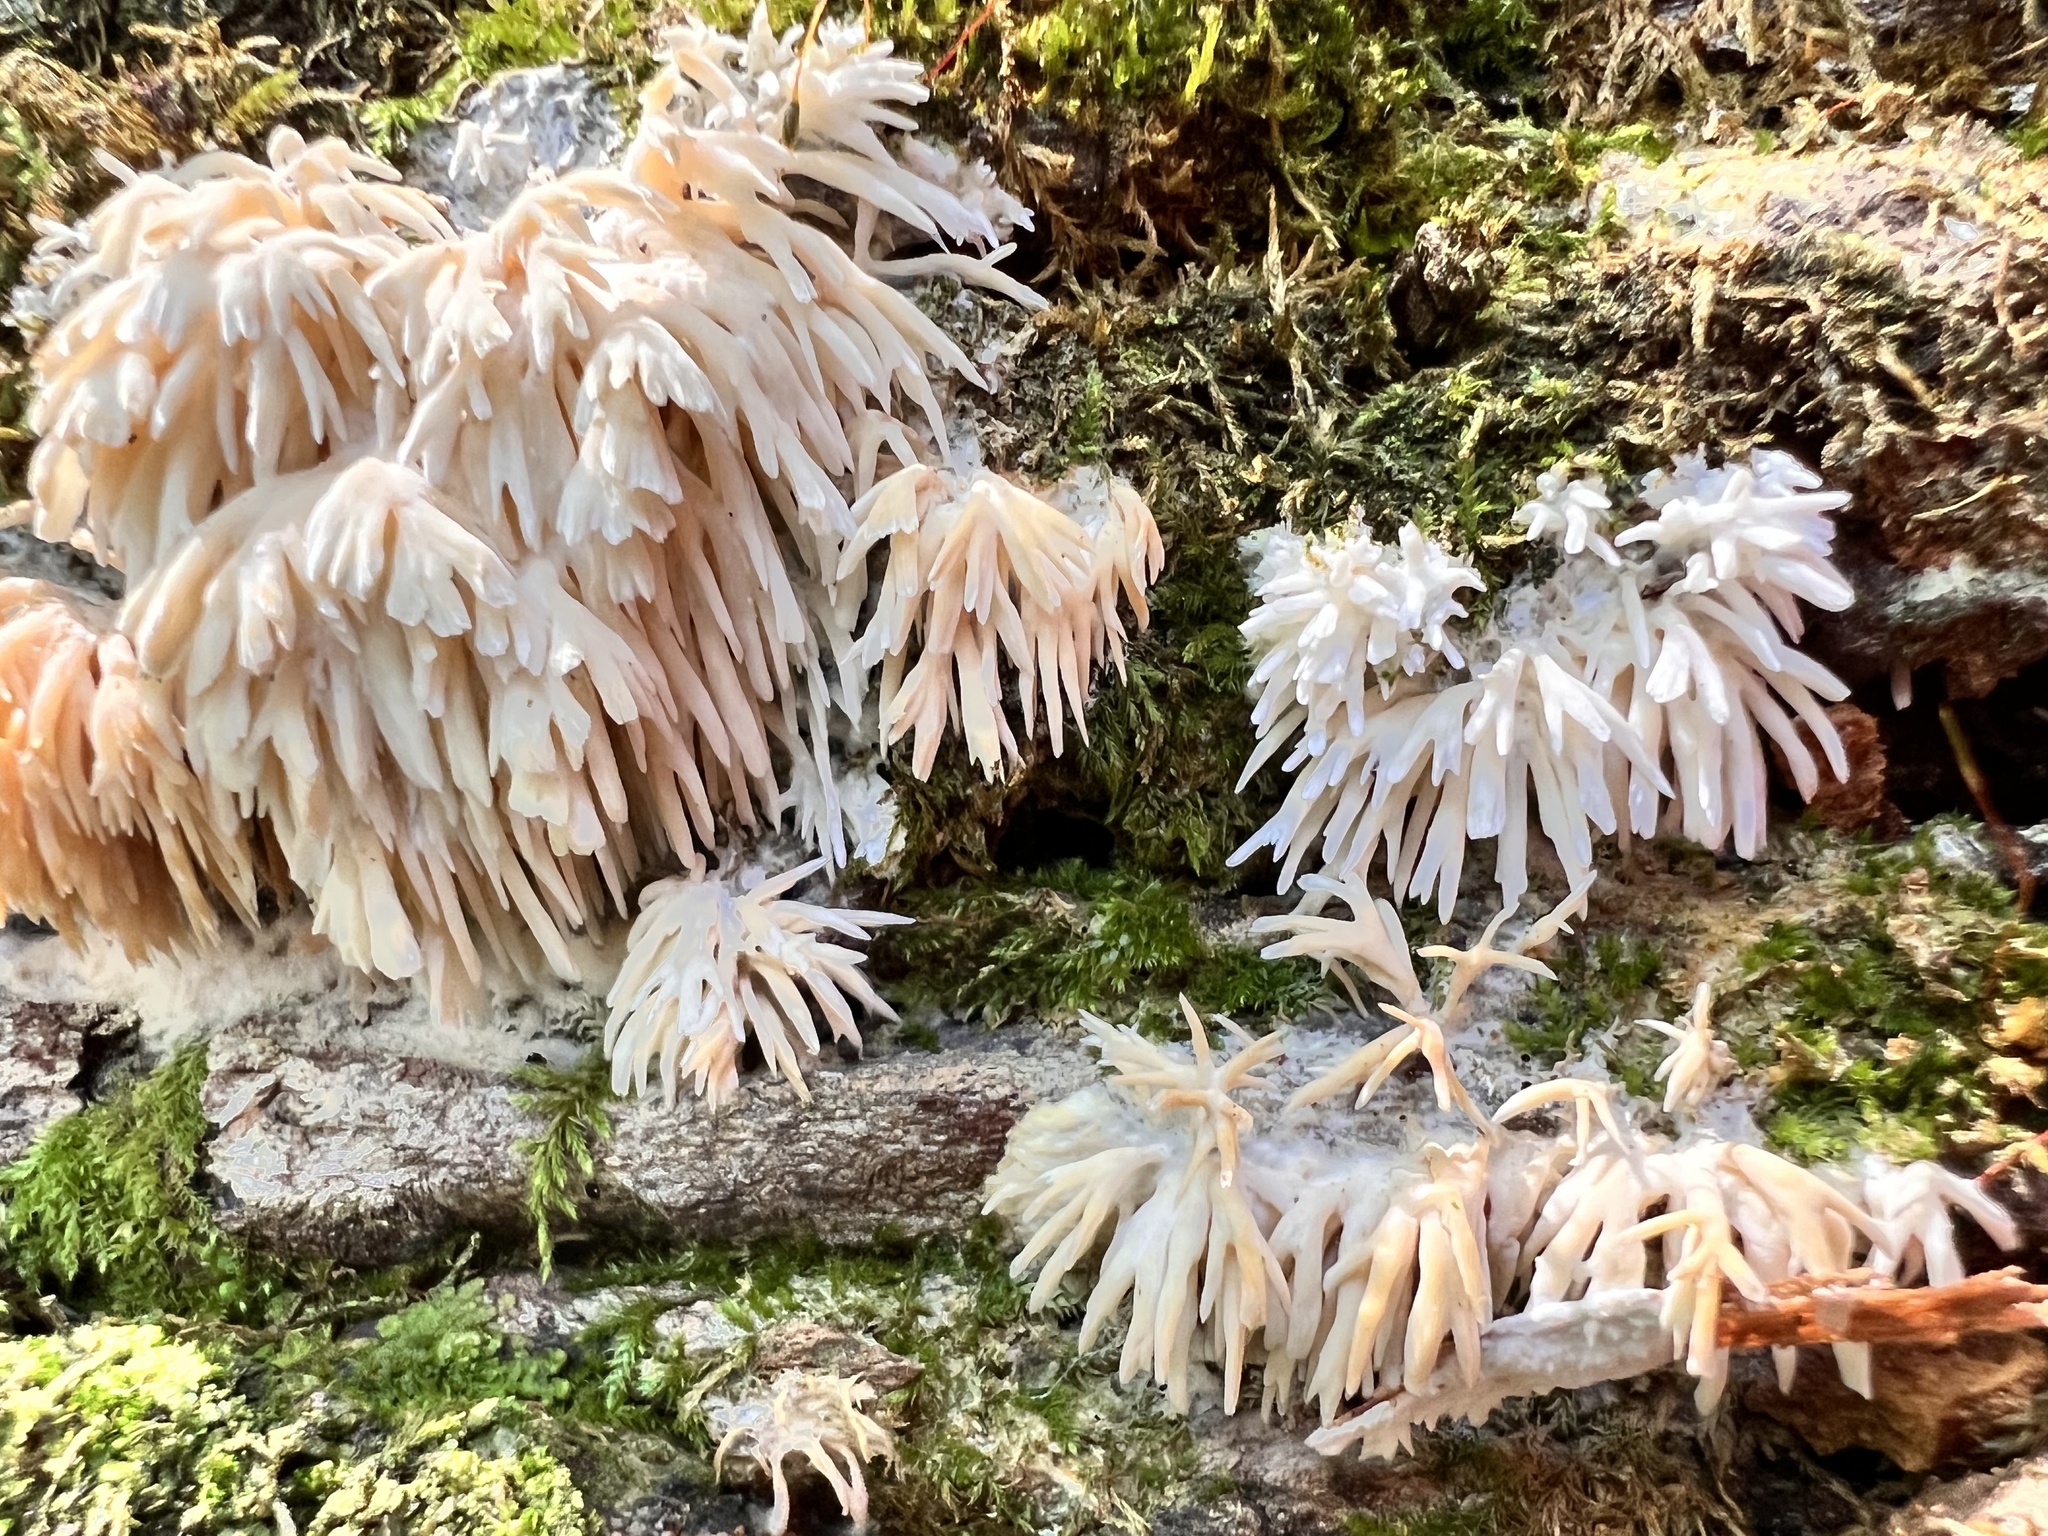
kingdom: Fungi
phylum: Basidiomycota
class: Agaricomycetes
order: Agaricales
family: Radulomycetaceae
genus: Radulomyces
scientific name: Radulomyces copelandii
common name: Asian beauty
